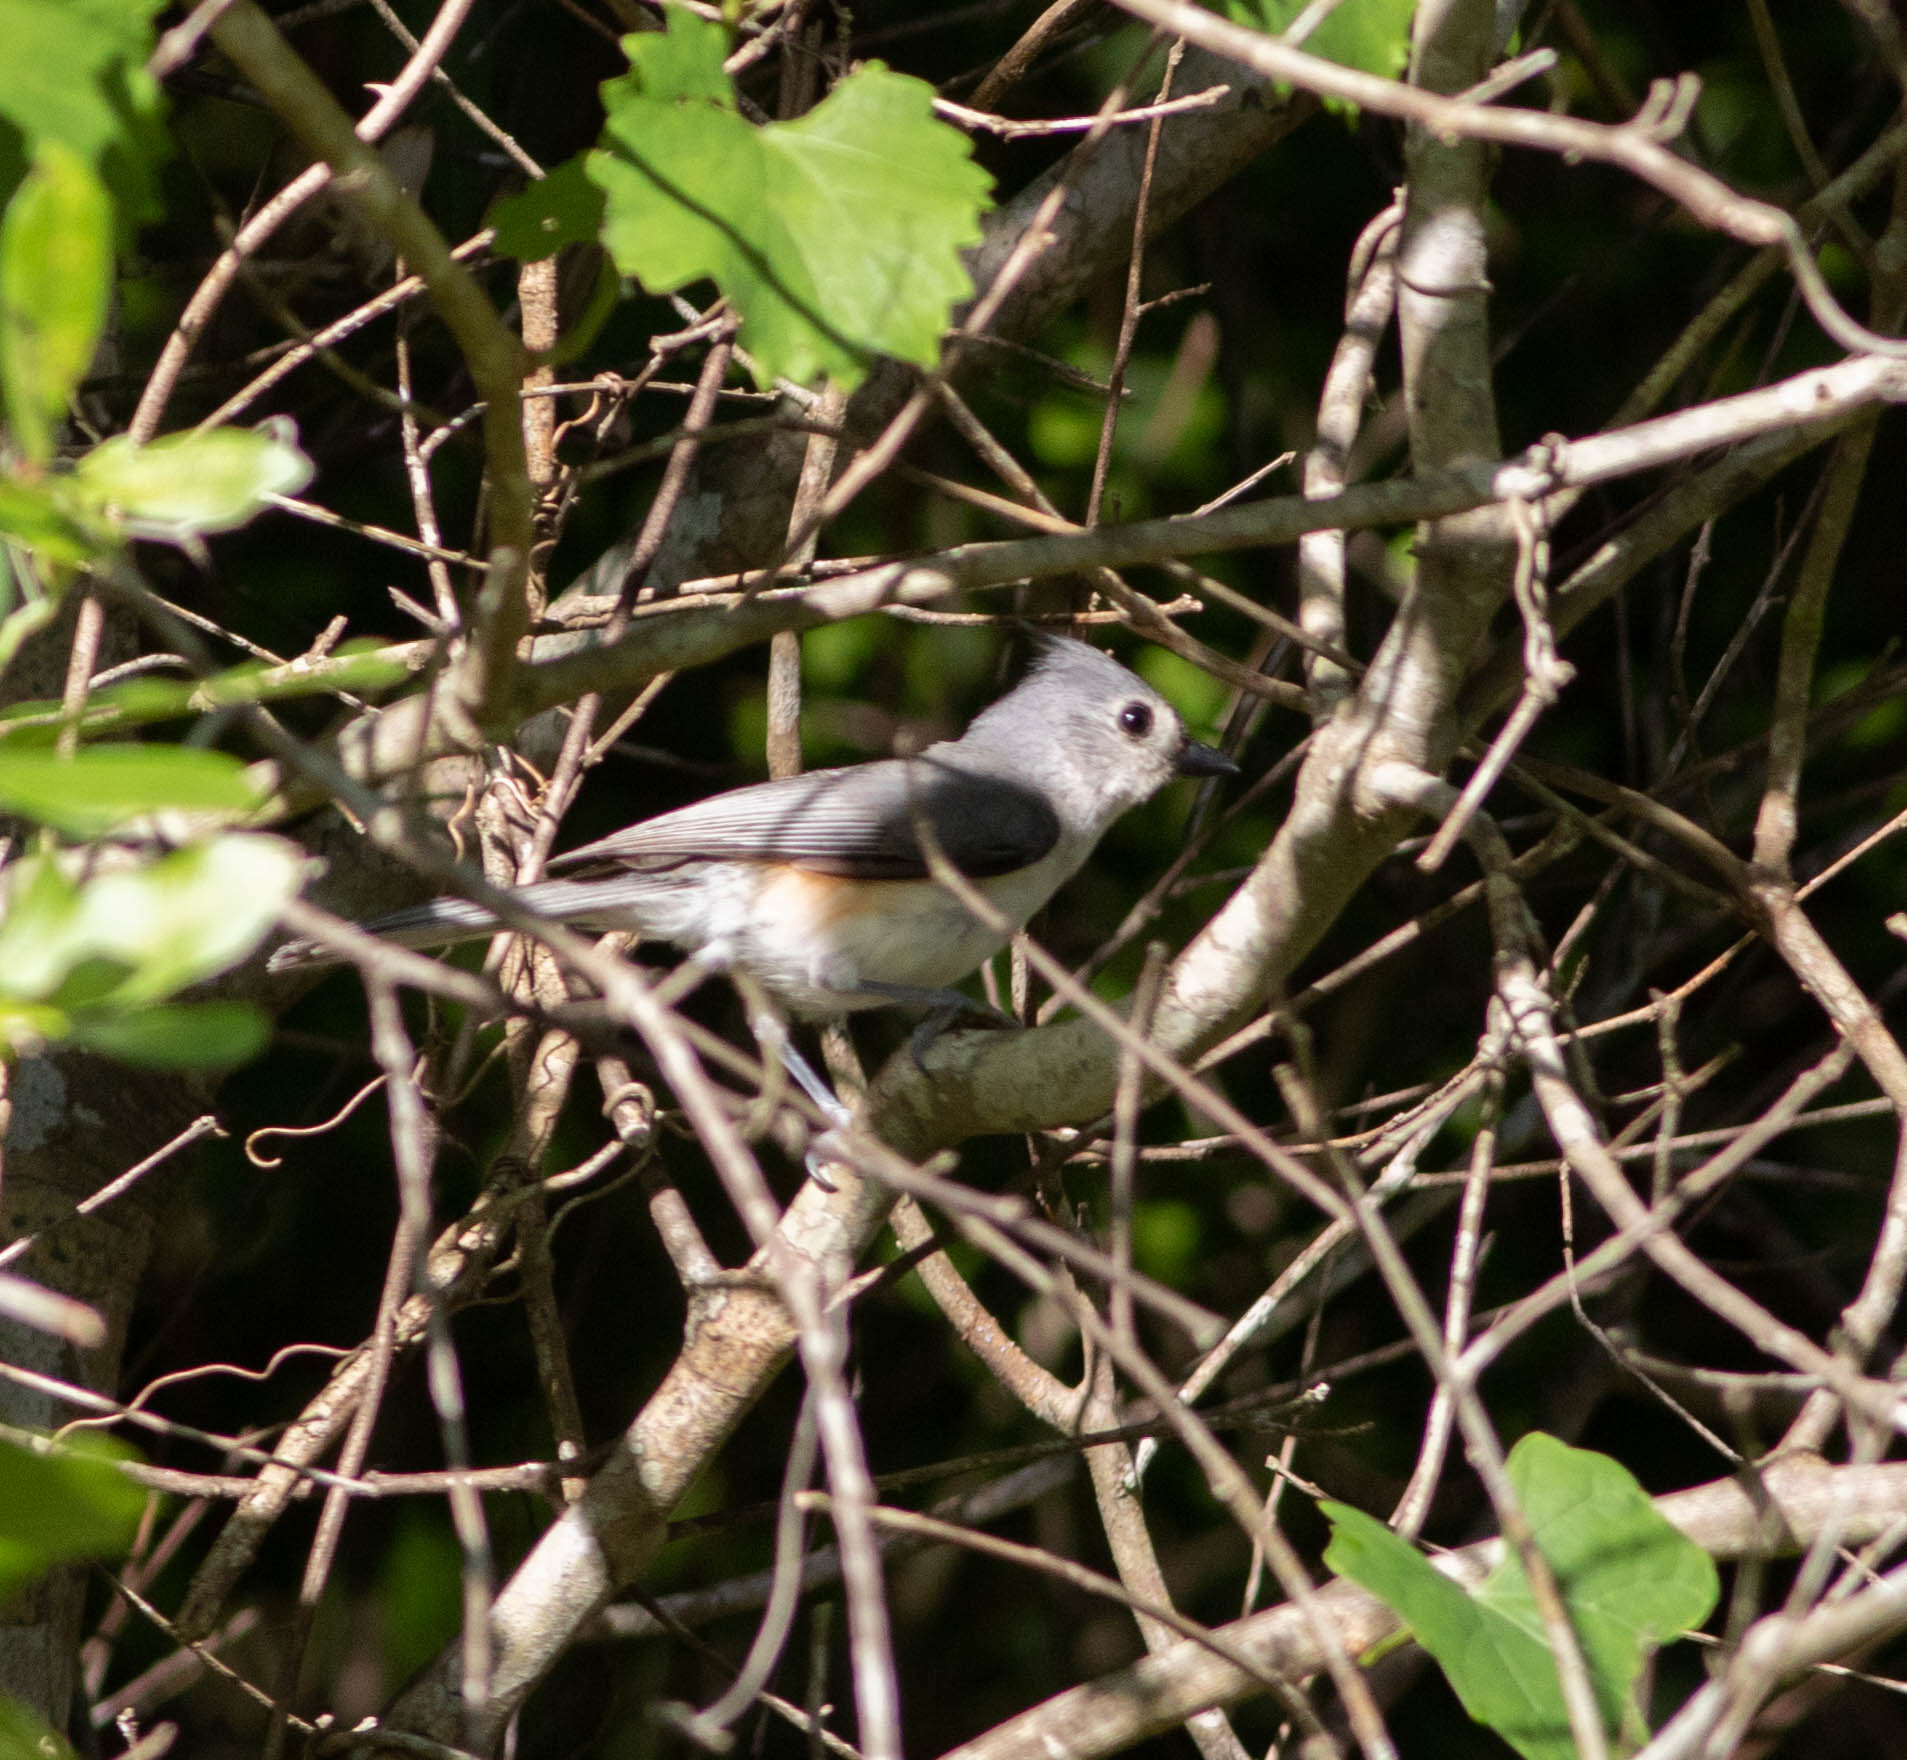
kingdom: Animalia
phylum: Chordata
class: Aves
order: Passeriformes
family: Paridae
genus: Baeolophus
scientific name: Baeolophus bicolor
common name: Tufted titmouse
